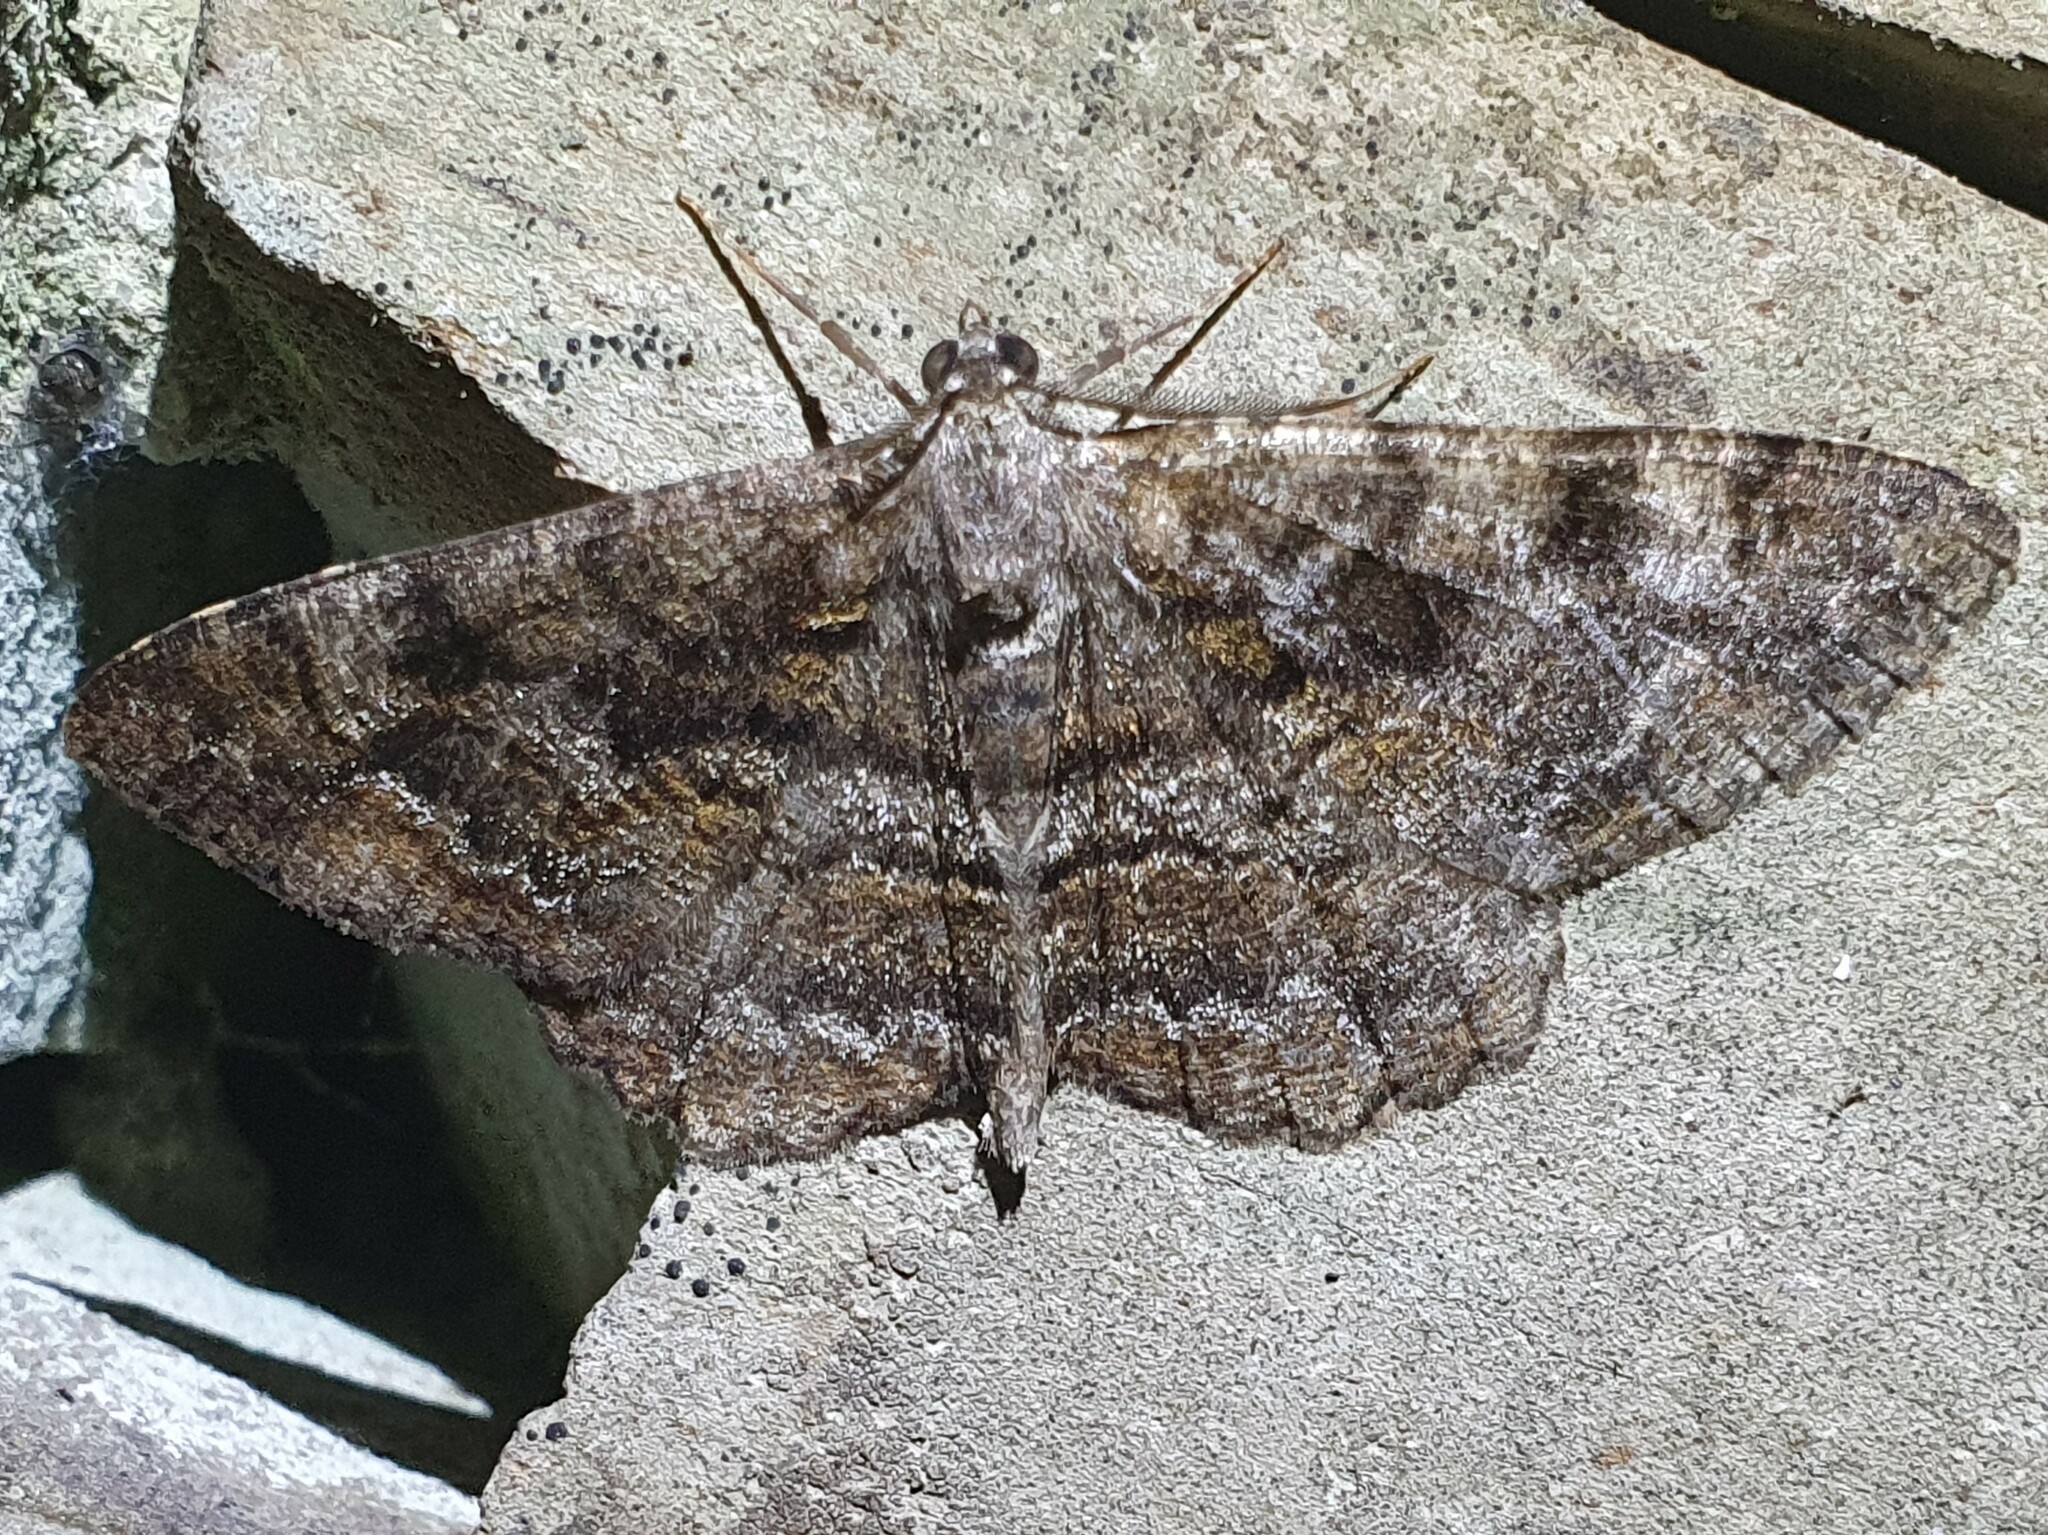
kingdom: Animalia
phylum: Arthropoda
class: Insecta
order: Lepidoptera
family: Geometridae
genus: Alcis
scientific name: Alcis repandata
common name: Mottled beauty
